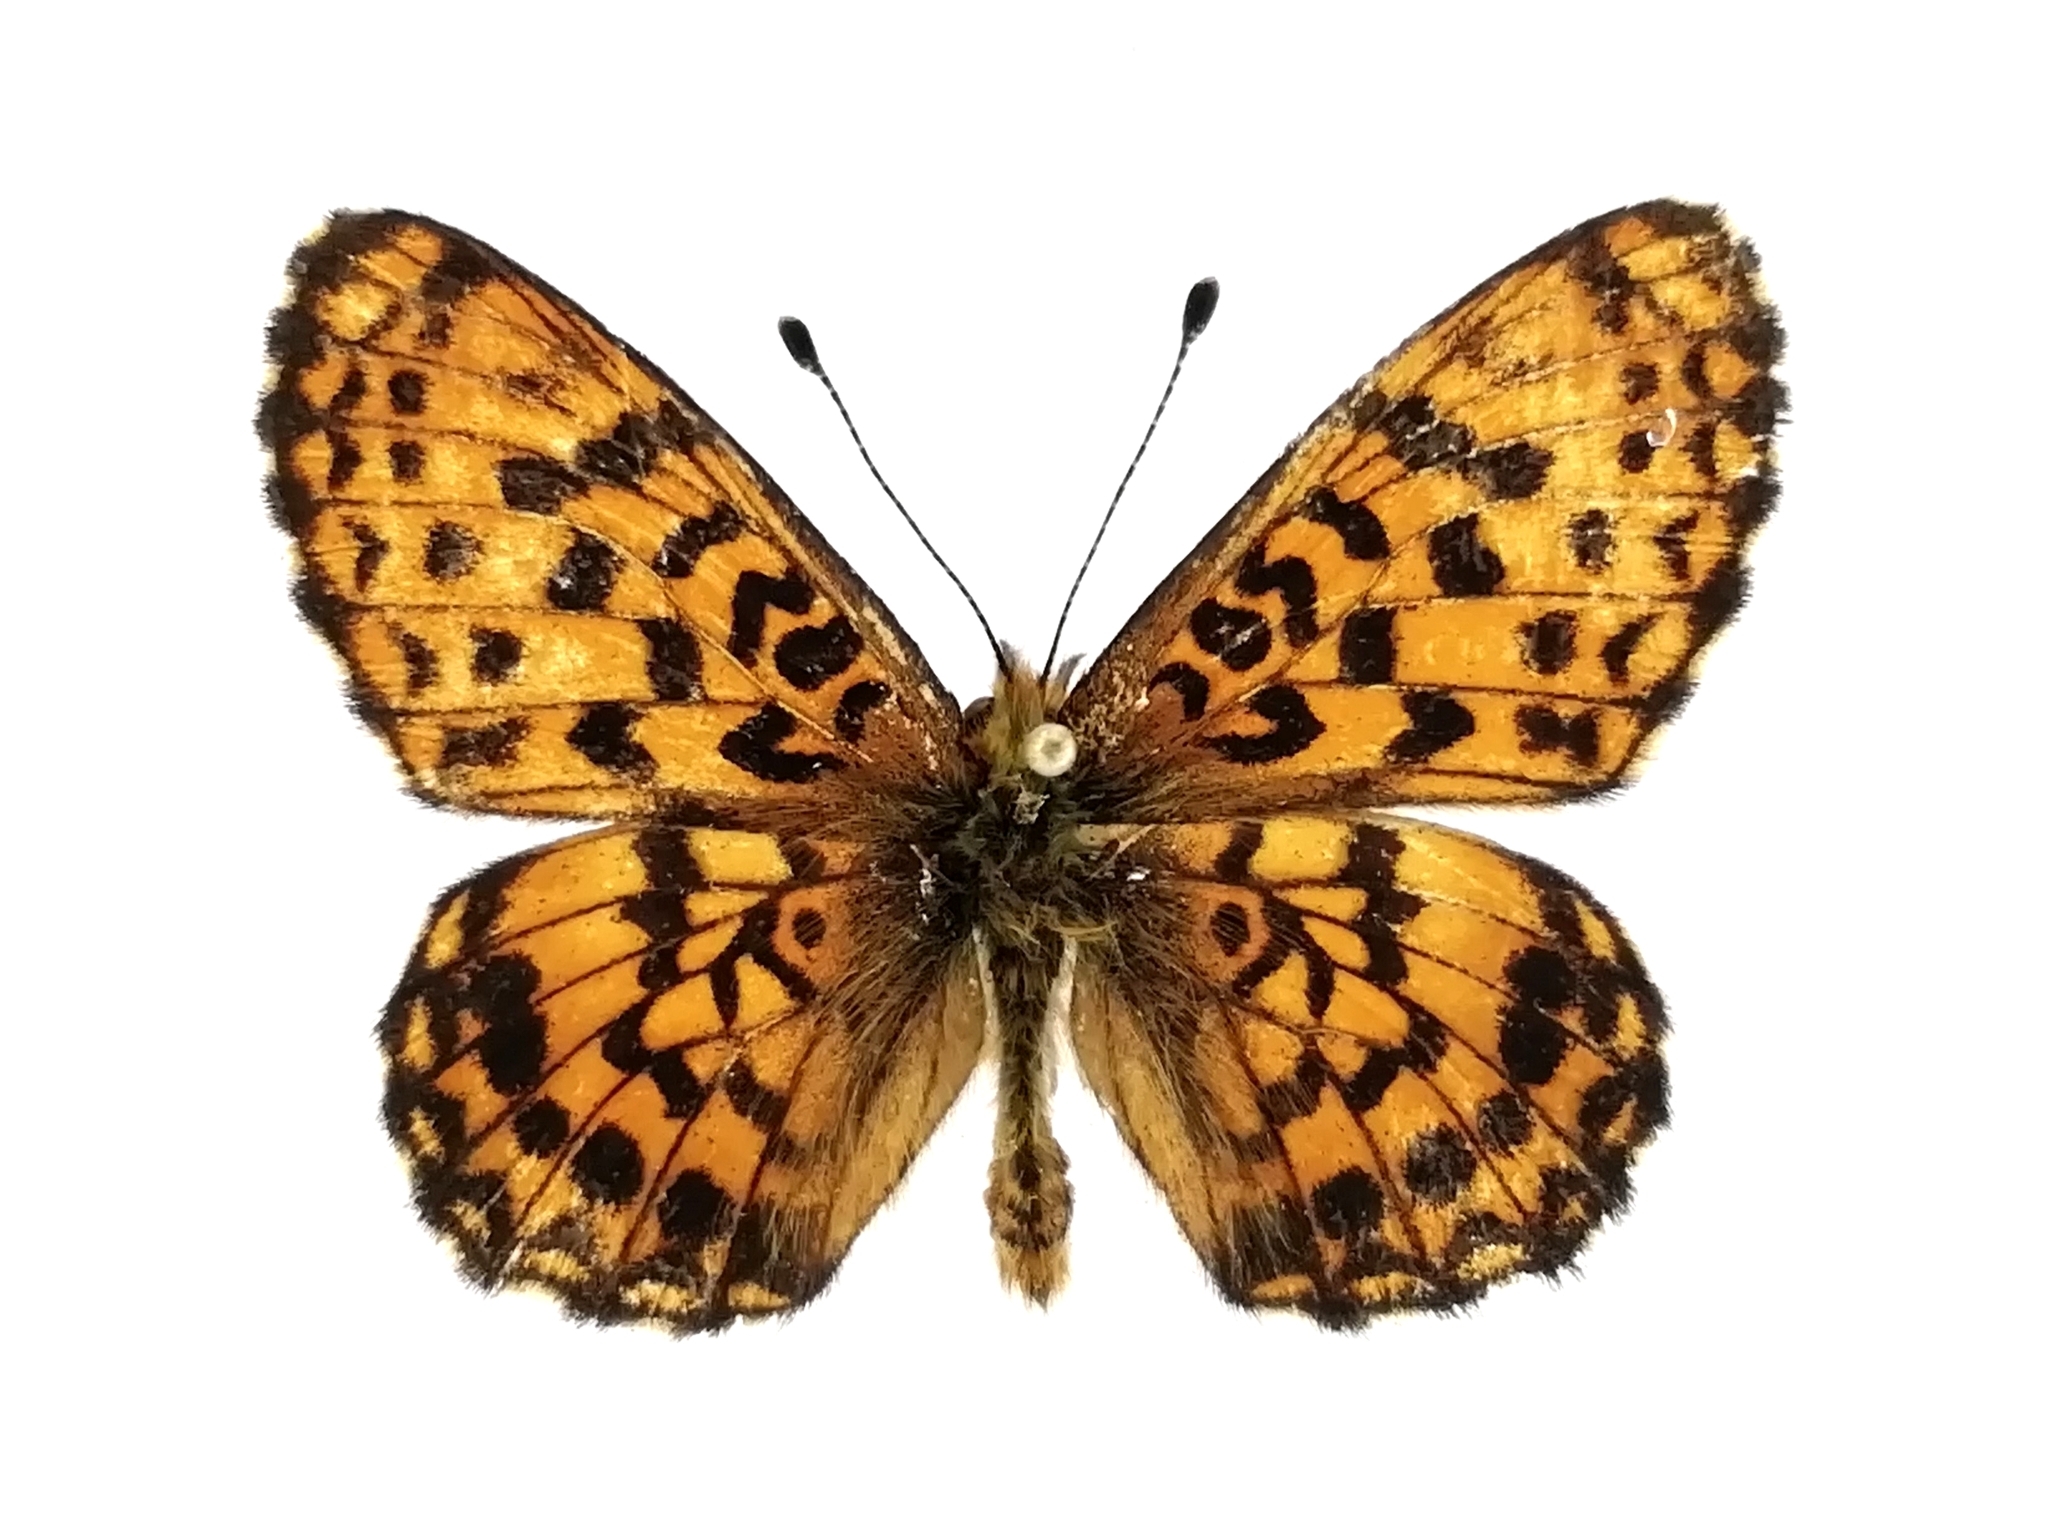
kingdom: Animalia
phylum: Arthropoda
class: Insecta
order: Lepidoptera
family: Nymphalidae
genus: Clossiana
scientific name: Clossiana angarensis
